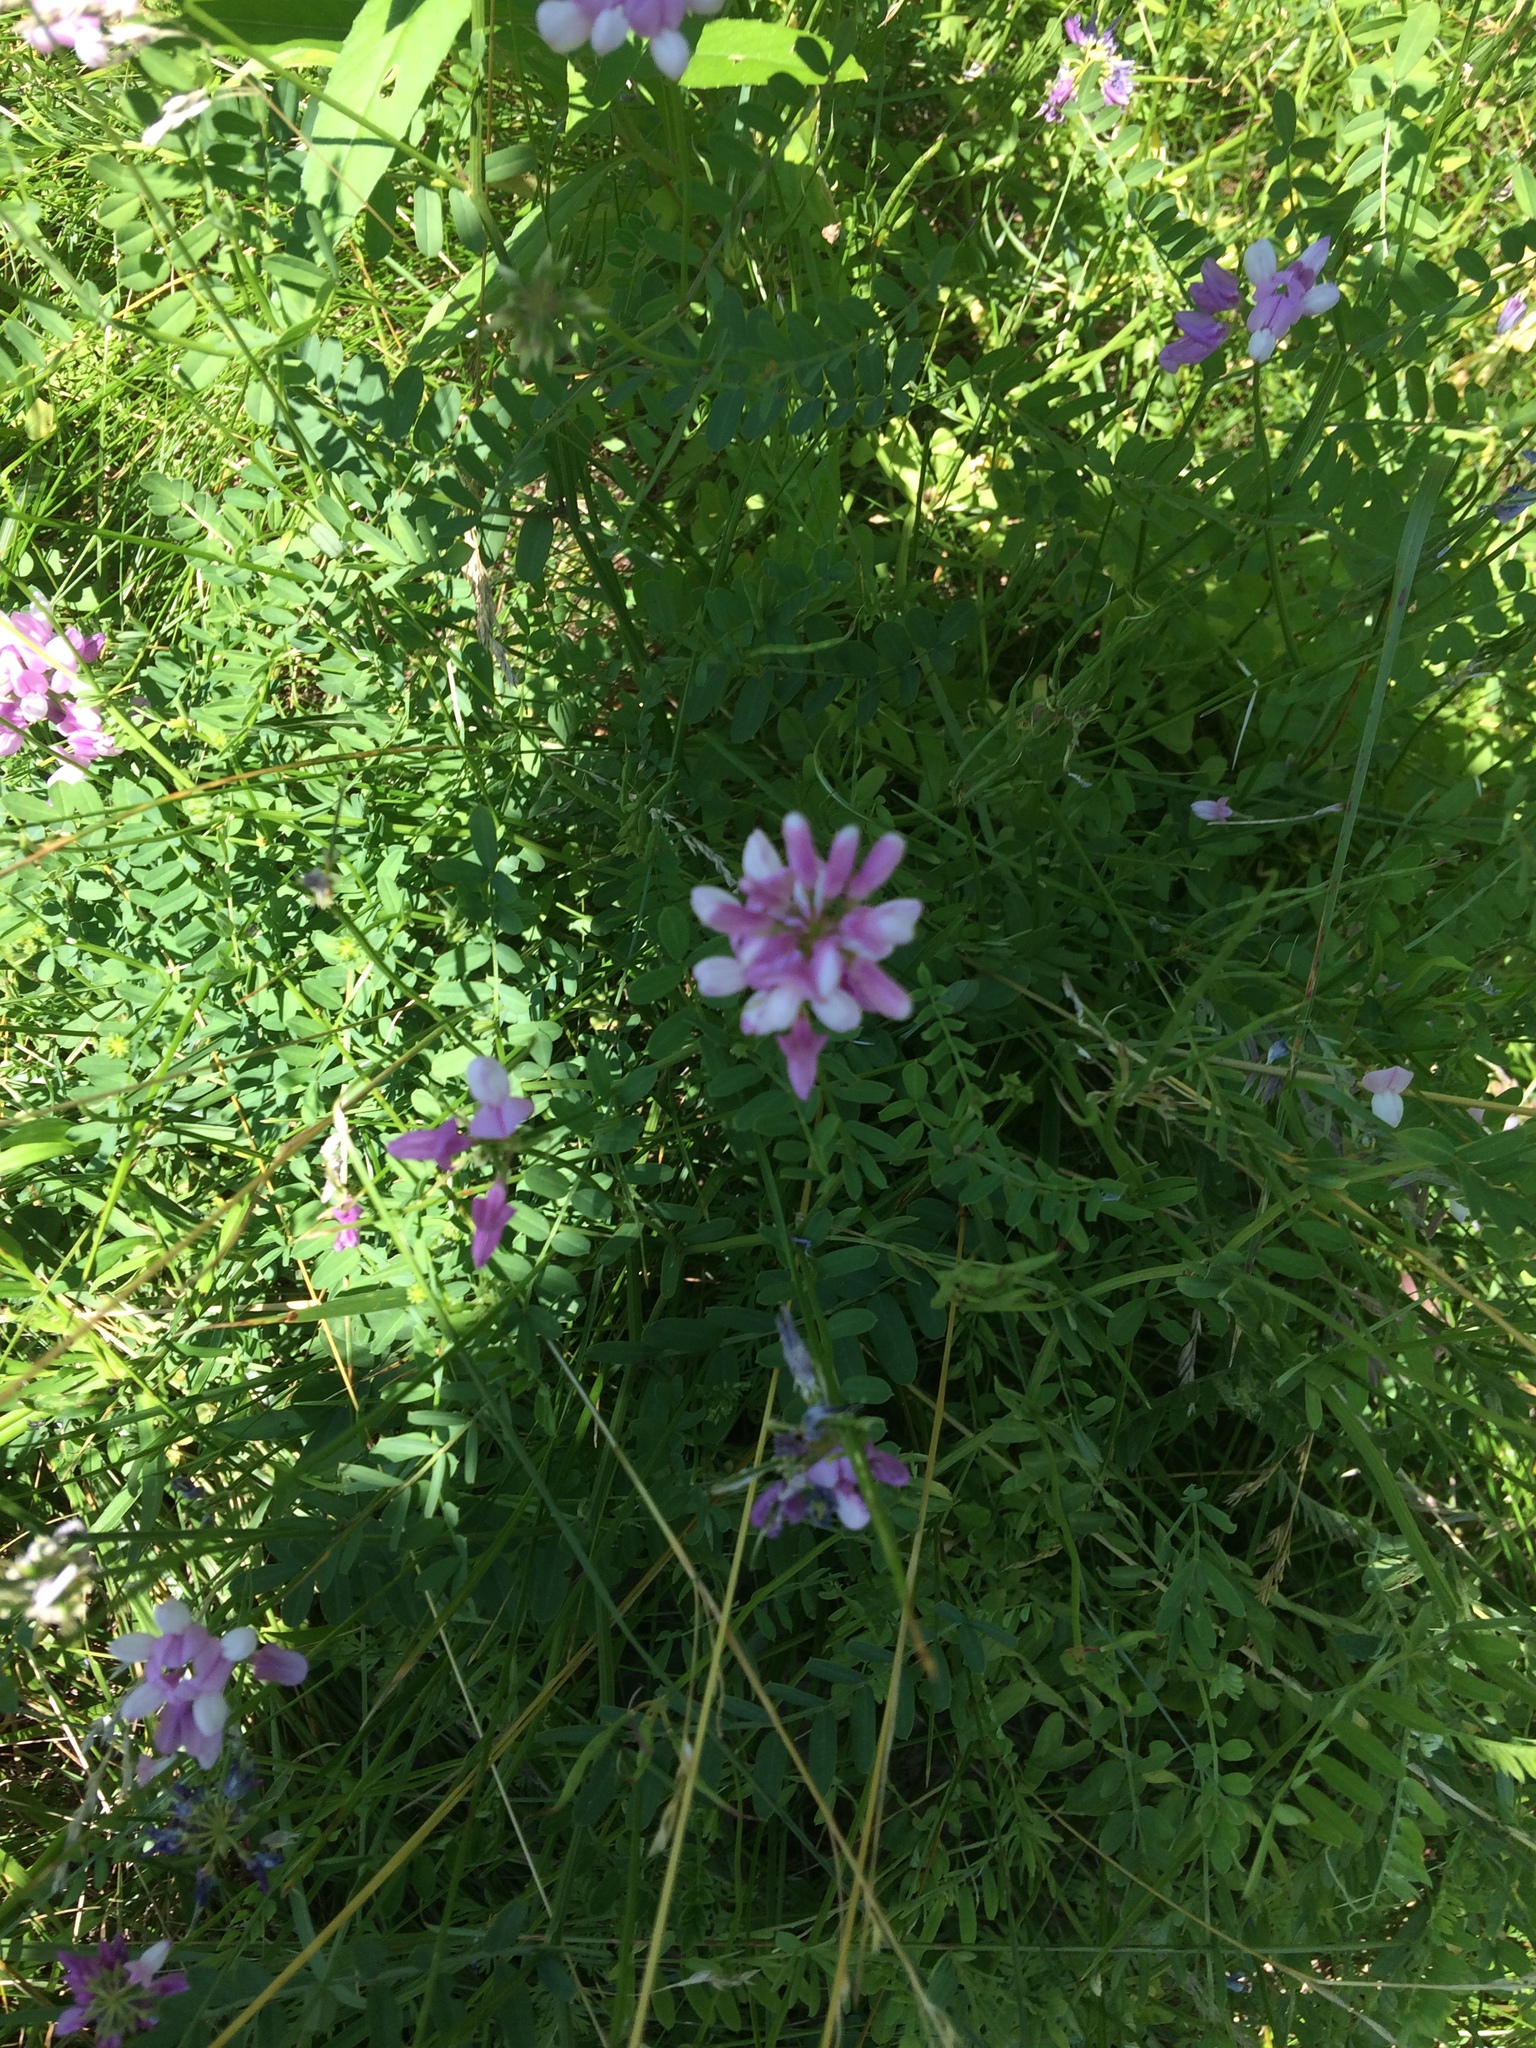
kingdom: Plantae
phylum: Tracheophyta
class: Magnoliopsida
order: Fabales
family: Fabaceae
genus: Coronilla
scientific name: Coronilla varia
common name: Crownvetch
